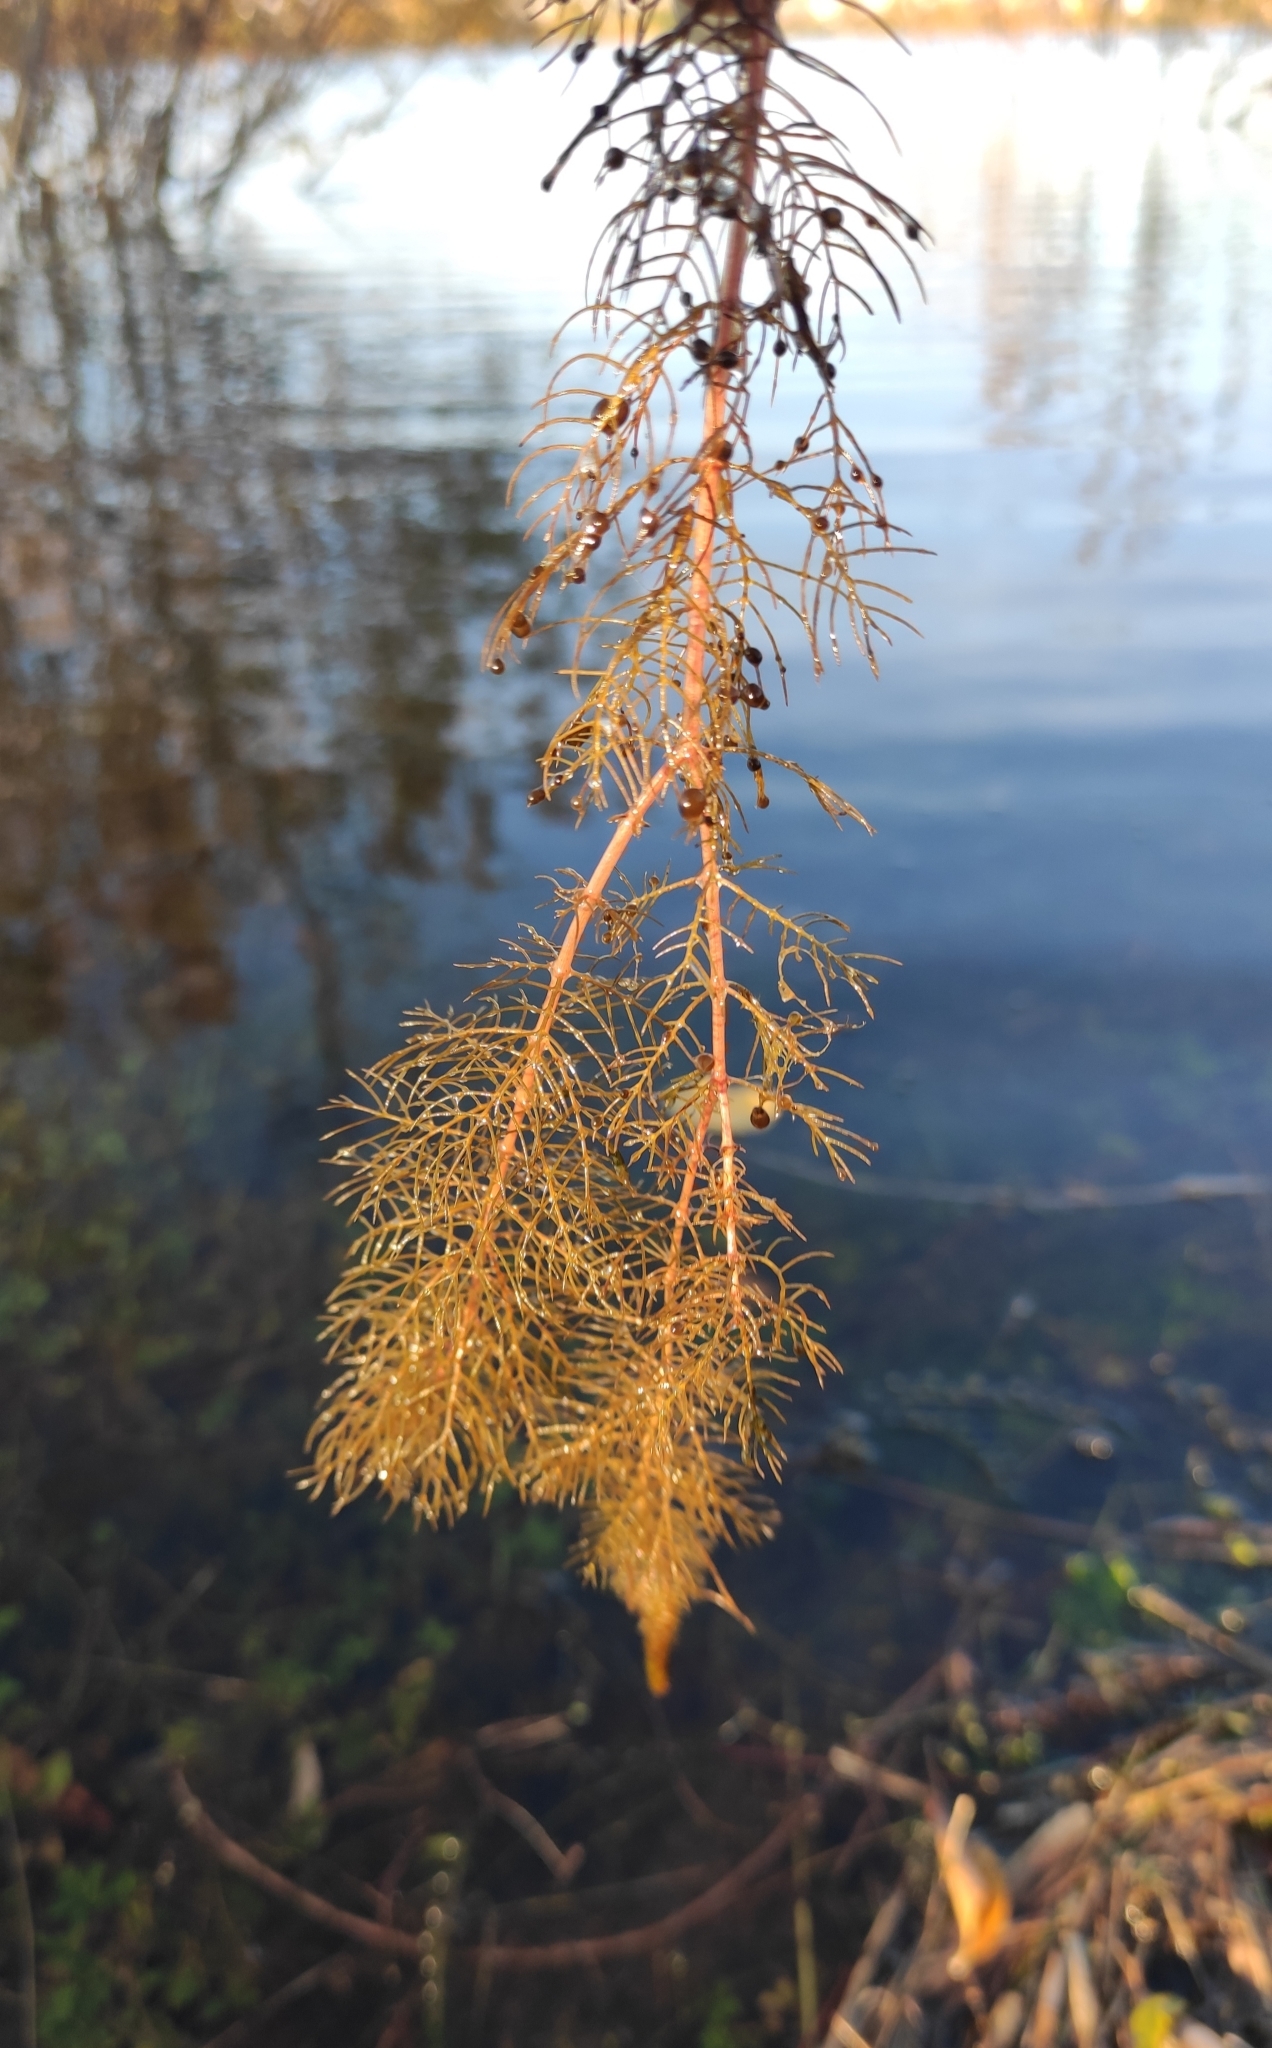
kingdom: Plantae
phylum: Tracheophyta
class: Magnoliopsida
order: Saxifragales
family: Haloragaceae
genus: Myriophyllum
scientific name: Myriophyllum sibiricum
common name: Siberian water-milfoil
